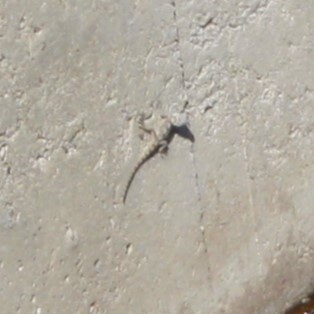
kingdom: Animalia
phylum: Chordata
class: Squamata
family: Agamidae
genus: Stellagama
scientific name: Stellagama stellio
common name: Starred agama
